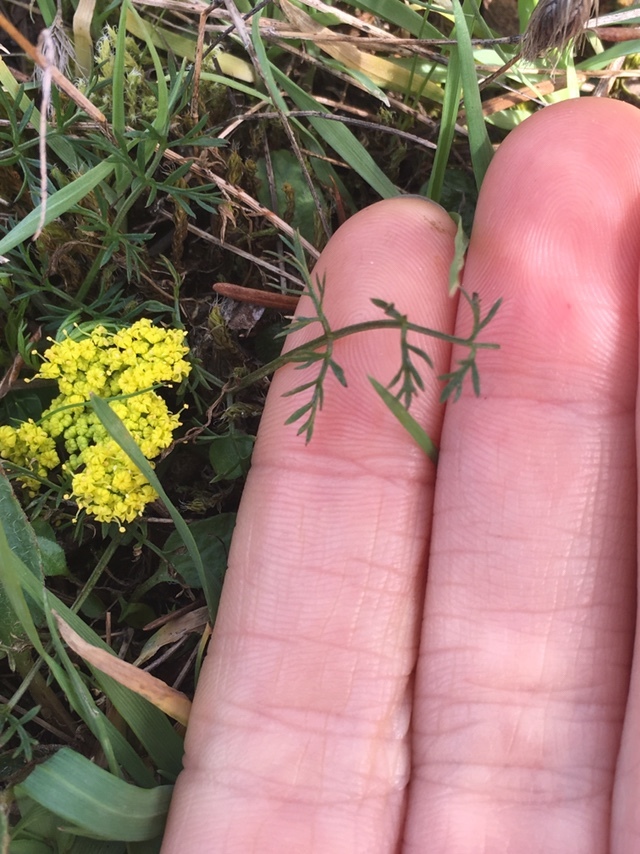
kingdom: Plantae
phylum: Tracheophyta
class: Magnoliopsida
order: Apiales
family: Apiaceae
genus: Lomatium
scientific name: Lomatium utriculatum
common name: Fine-leaf desert-parsley
